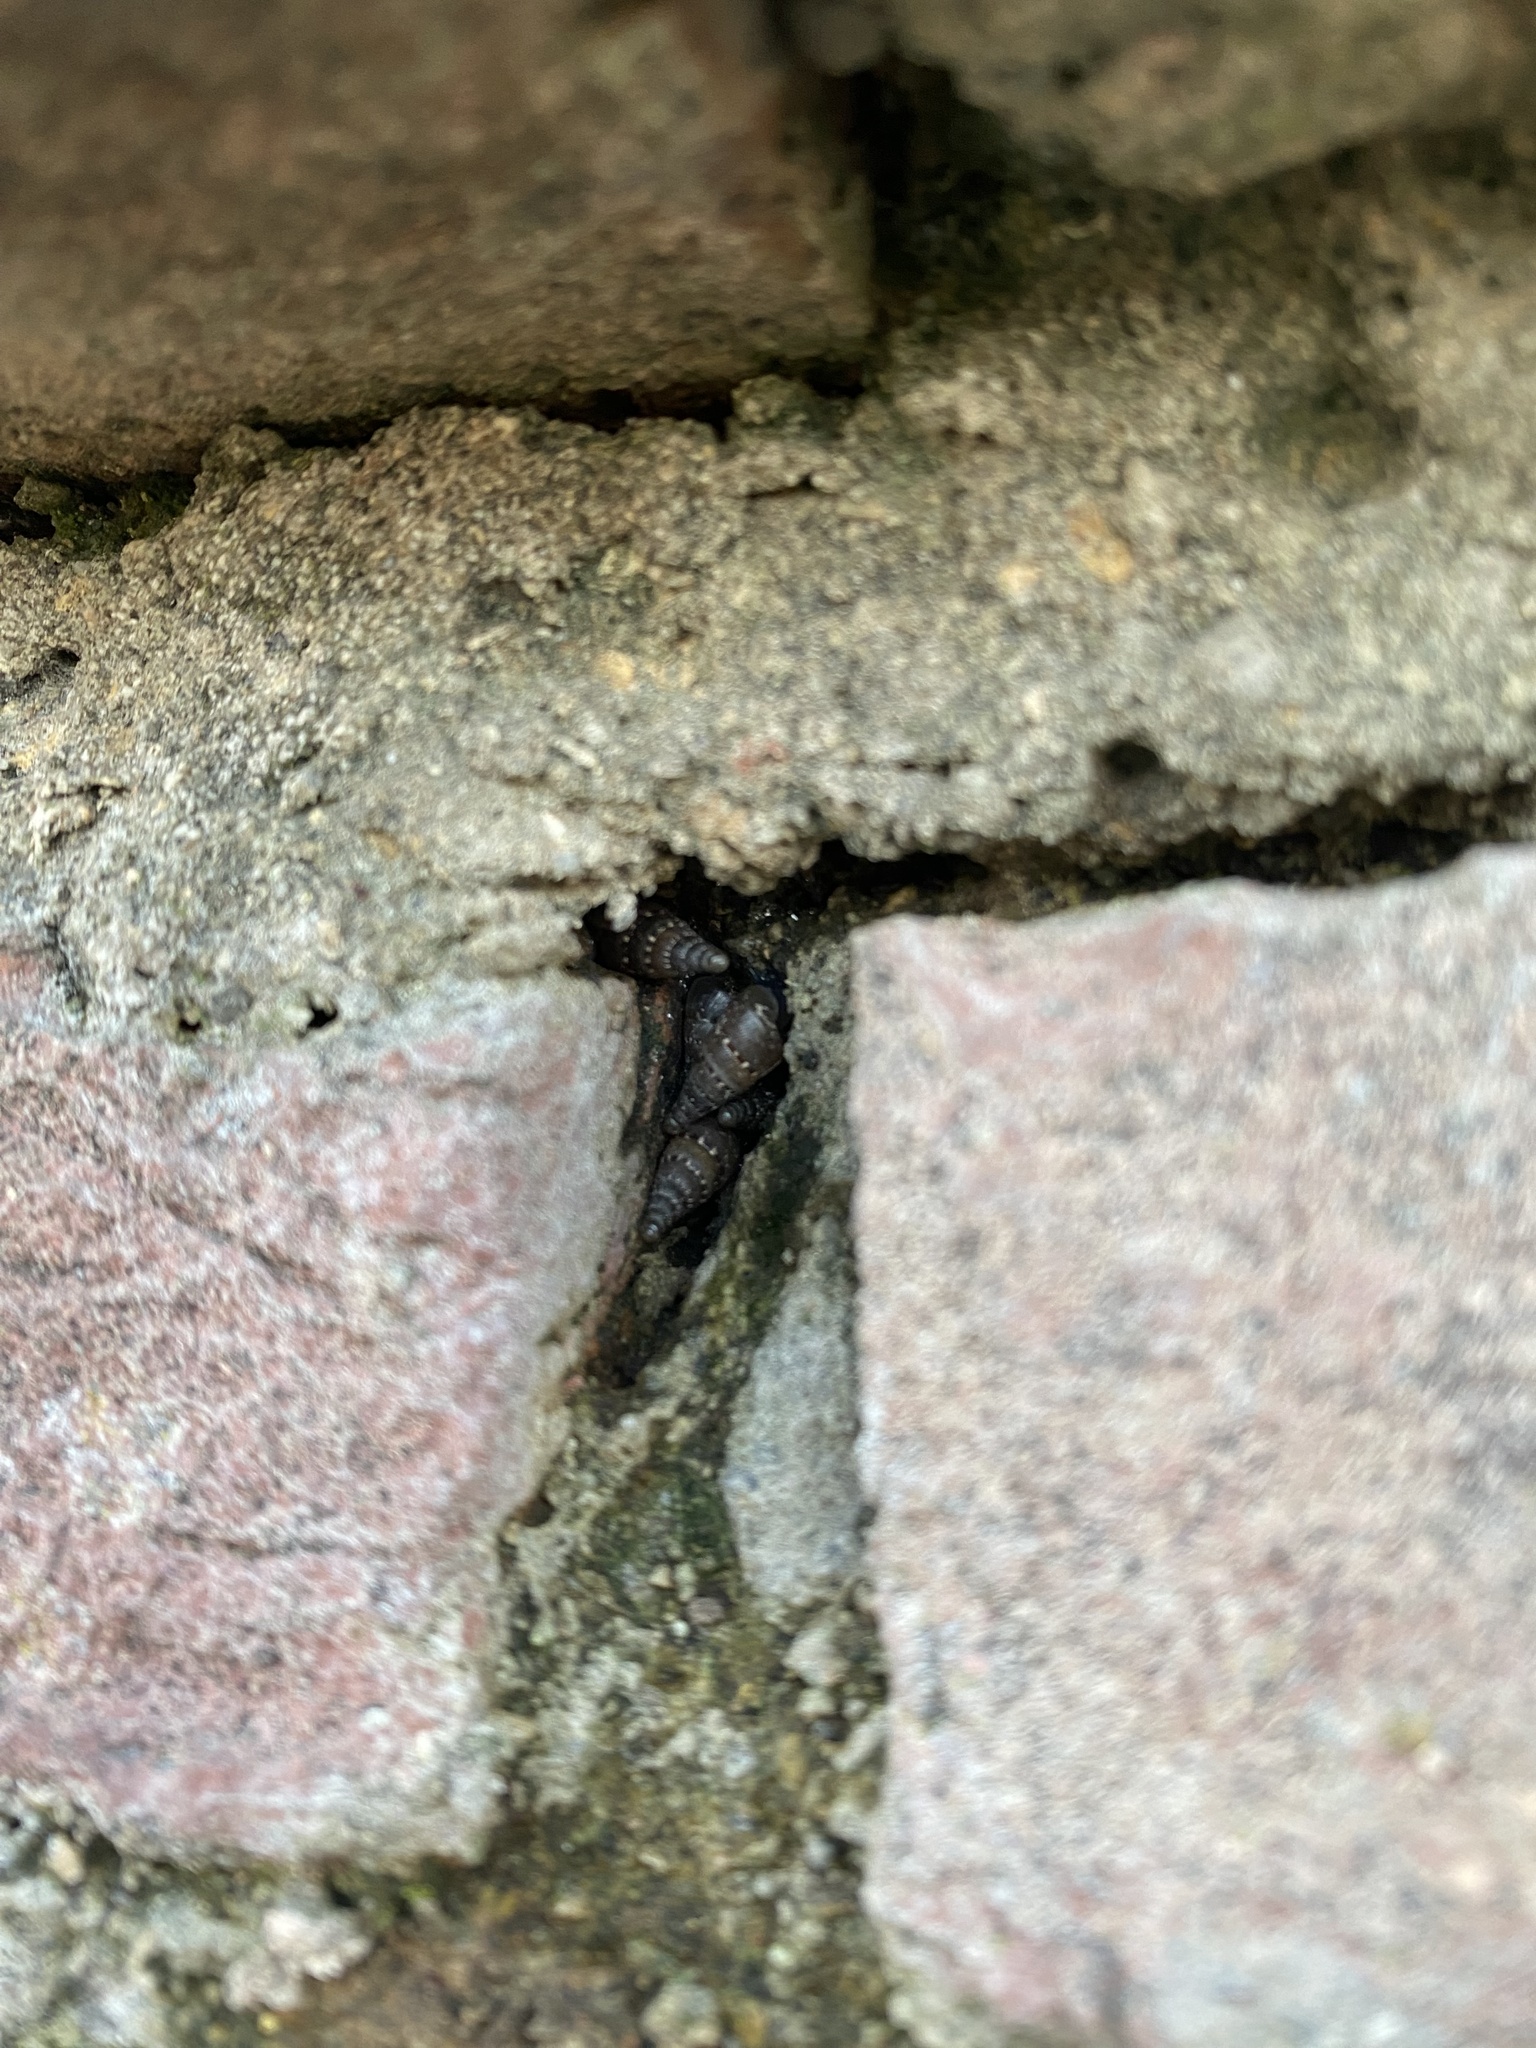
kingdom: Animalia
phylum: Mollusca
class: Gastropoda
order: Stylommatophora
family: Clausiliidae
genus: Papillifera
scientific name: Papillifera papillaris
